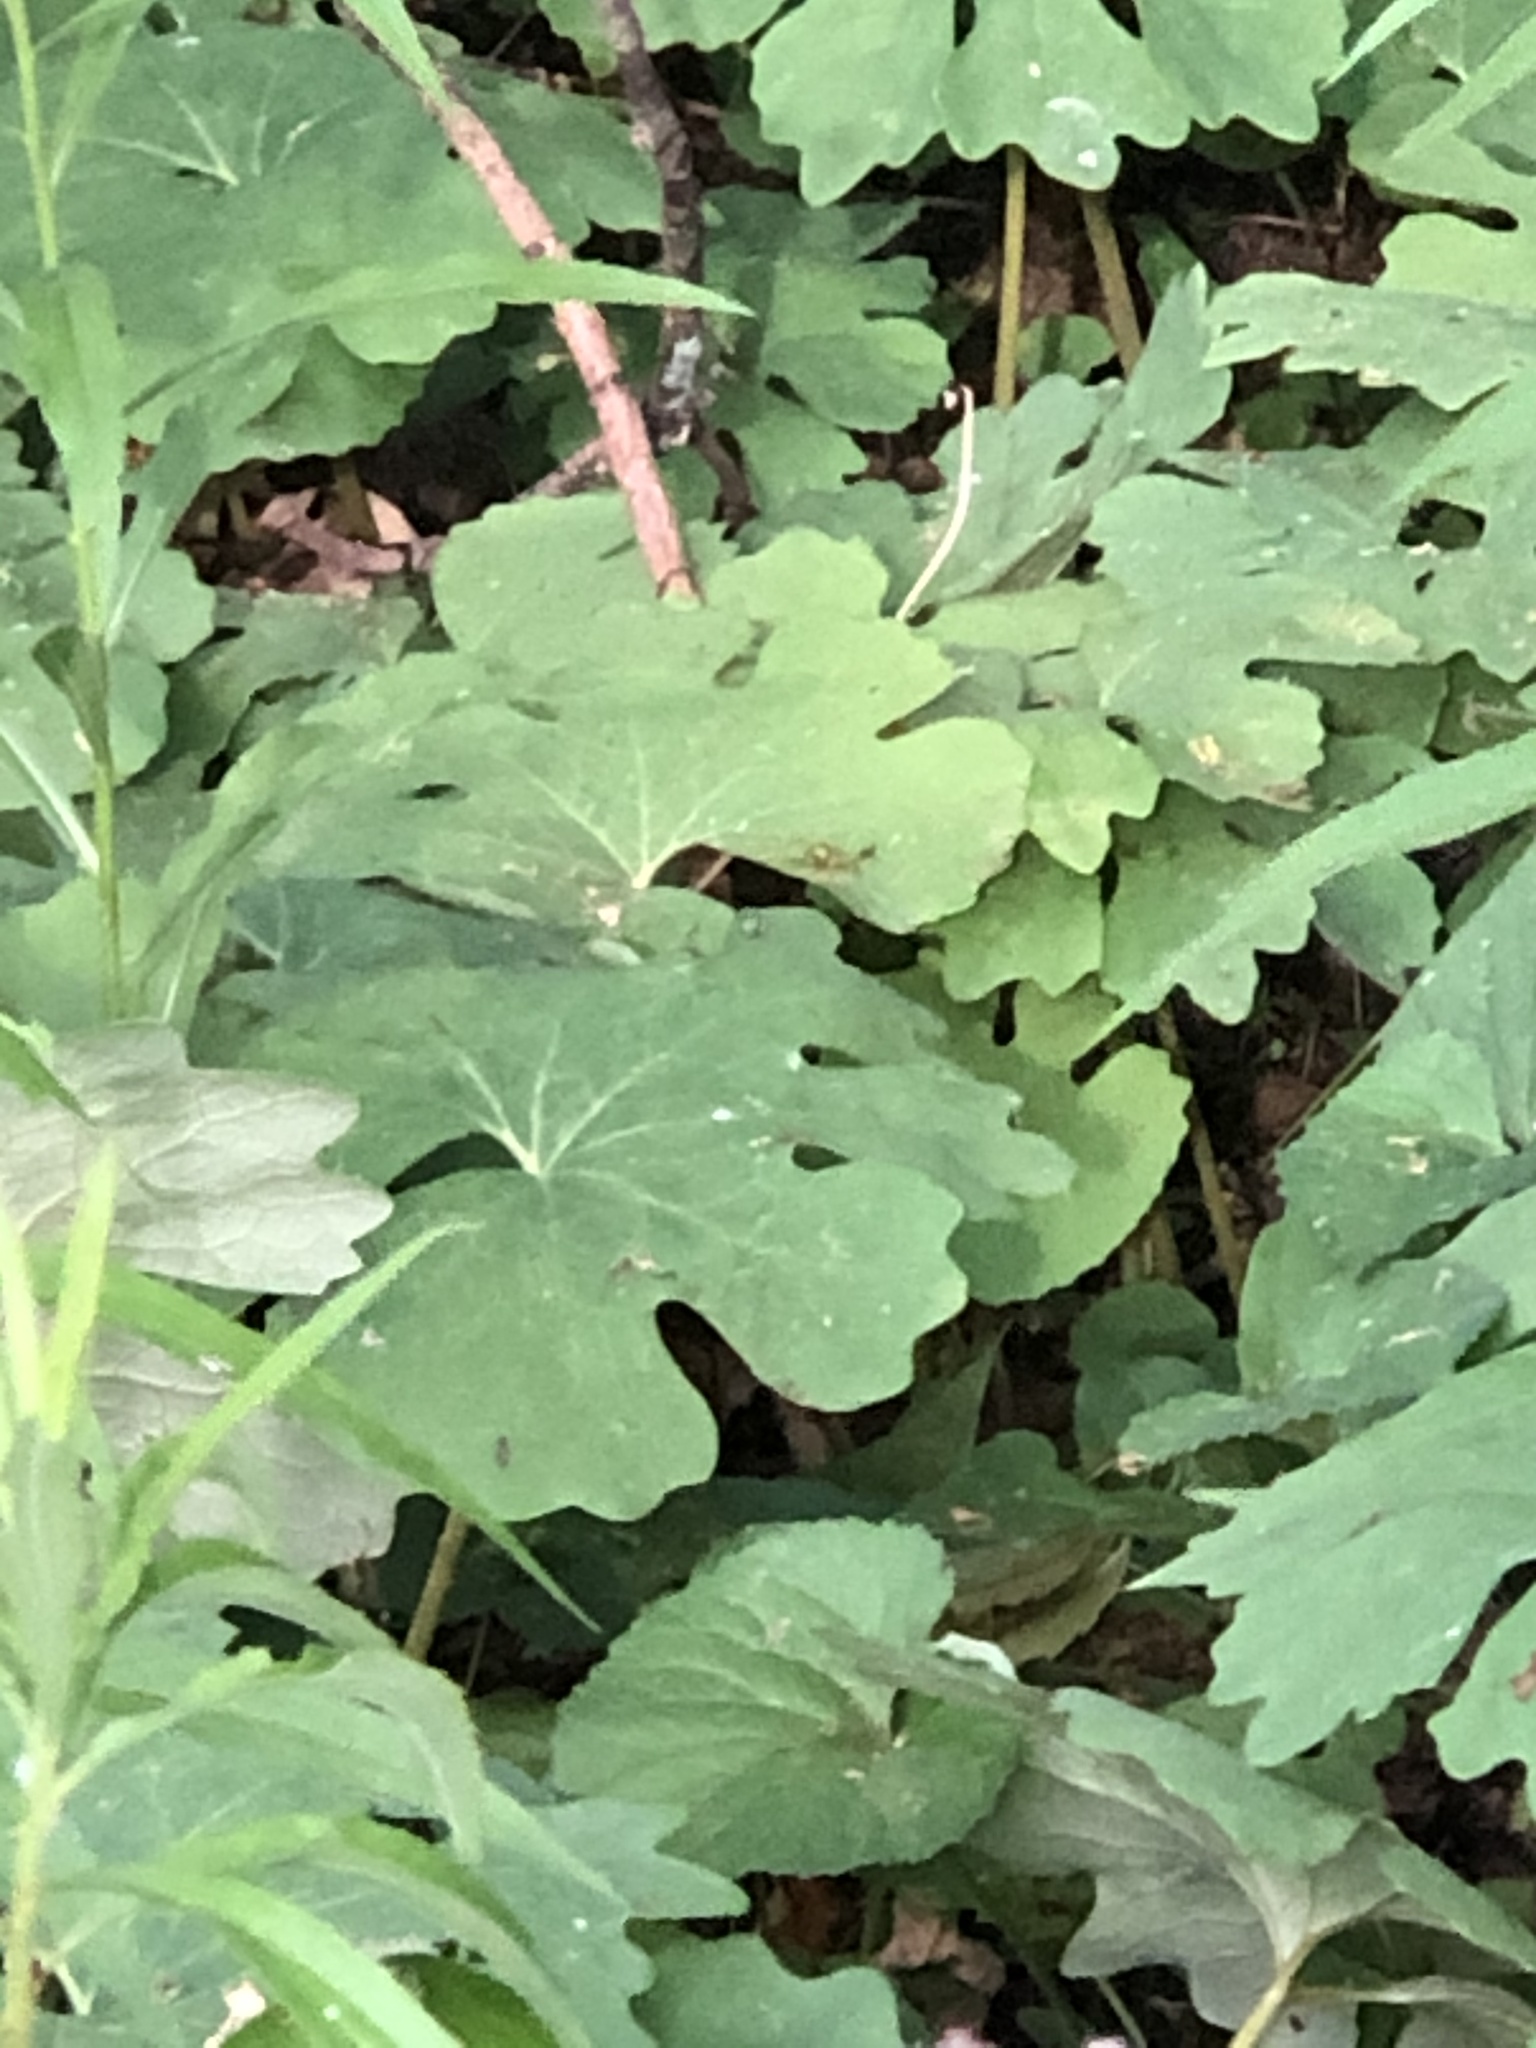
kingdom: Plantae
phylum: Tracheophyta
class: Magnoliopsida
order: Ranunculales
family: Papaveraceae
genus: Sanguinaria
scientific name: Sanguinaria canadensis
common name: Bloodroot
